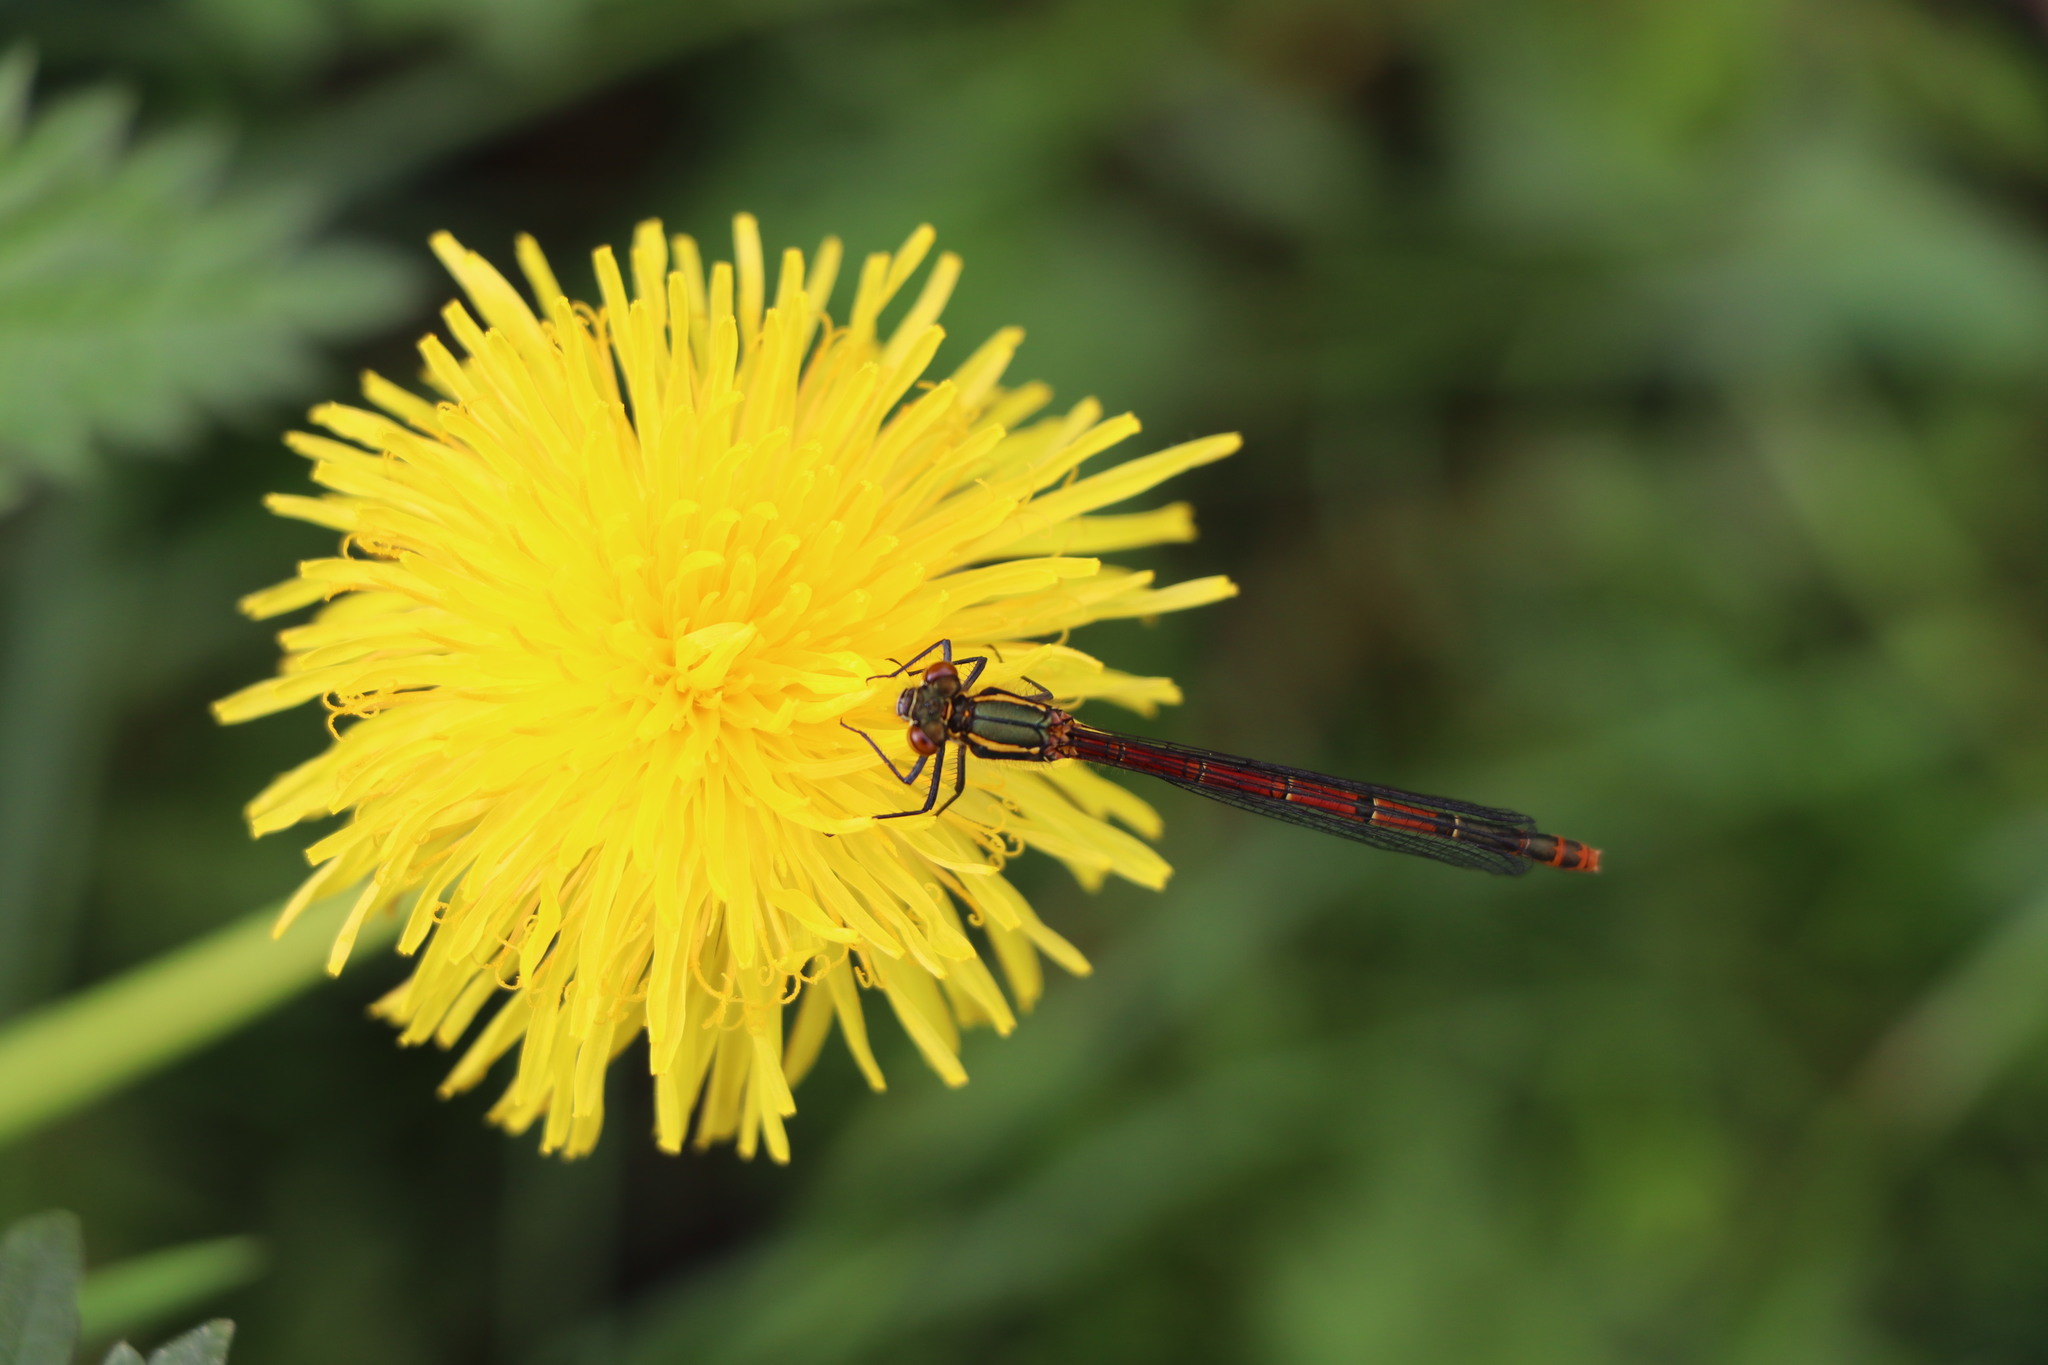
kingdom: Animalia
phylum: Arthropoda
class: Insecta
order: Odonata
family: Coenagrionidae
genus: Pyrrhosoma
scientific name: Pyrrhosoma nymphula
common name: Large red damsel
